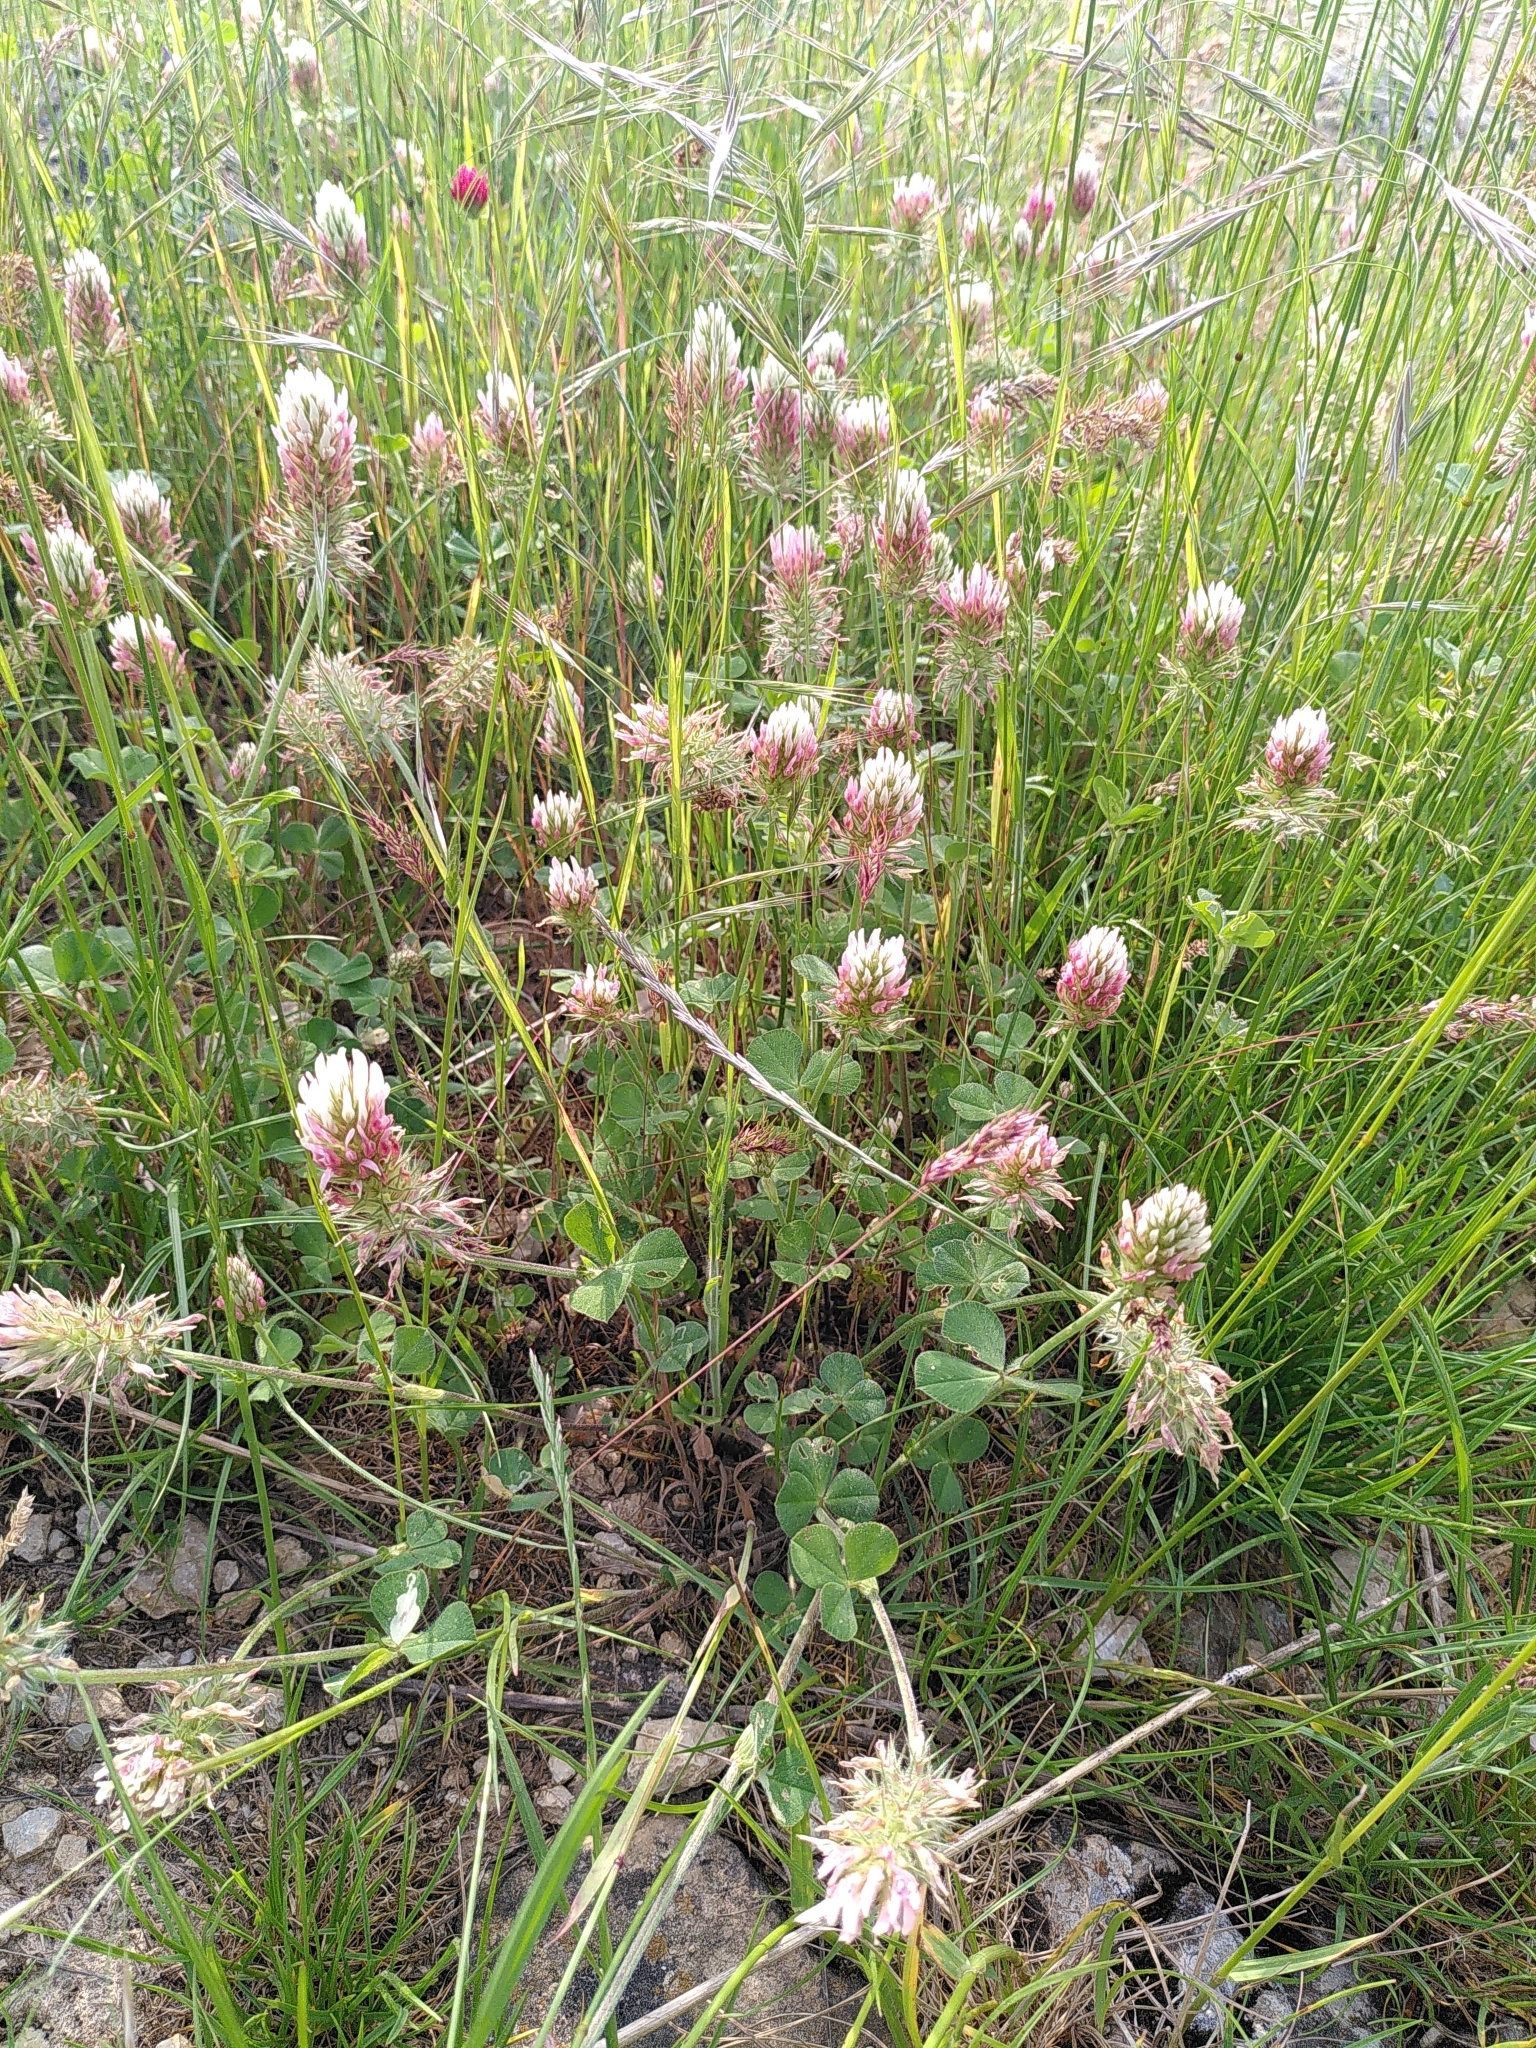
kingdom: Plantae
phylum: Tracheophyta
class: Magnoliopsida
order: Fabales
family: Fabaceae
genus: Trifolium
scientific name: Trifolium incarnatum
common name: Crimson clover
